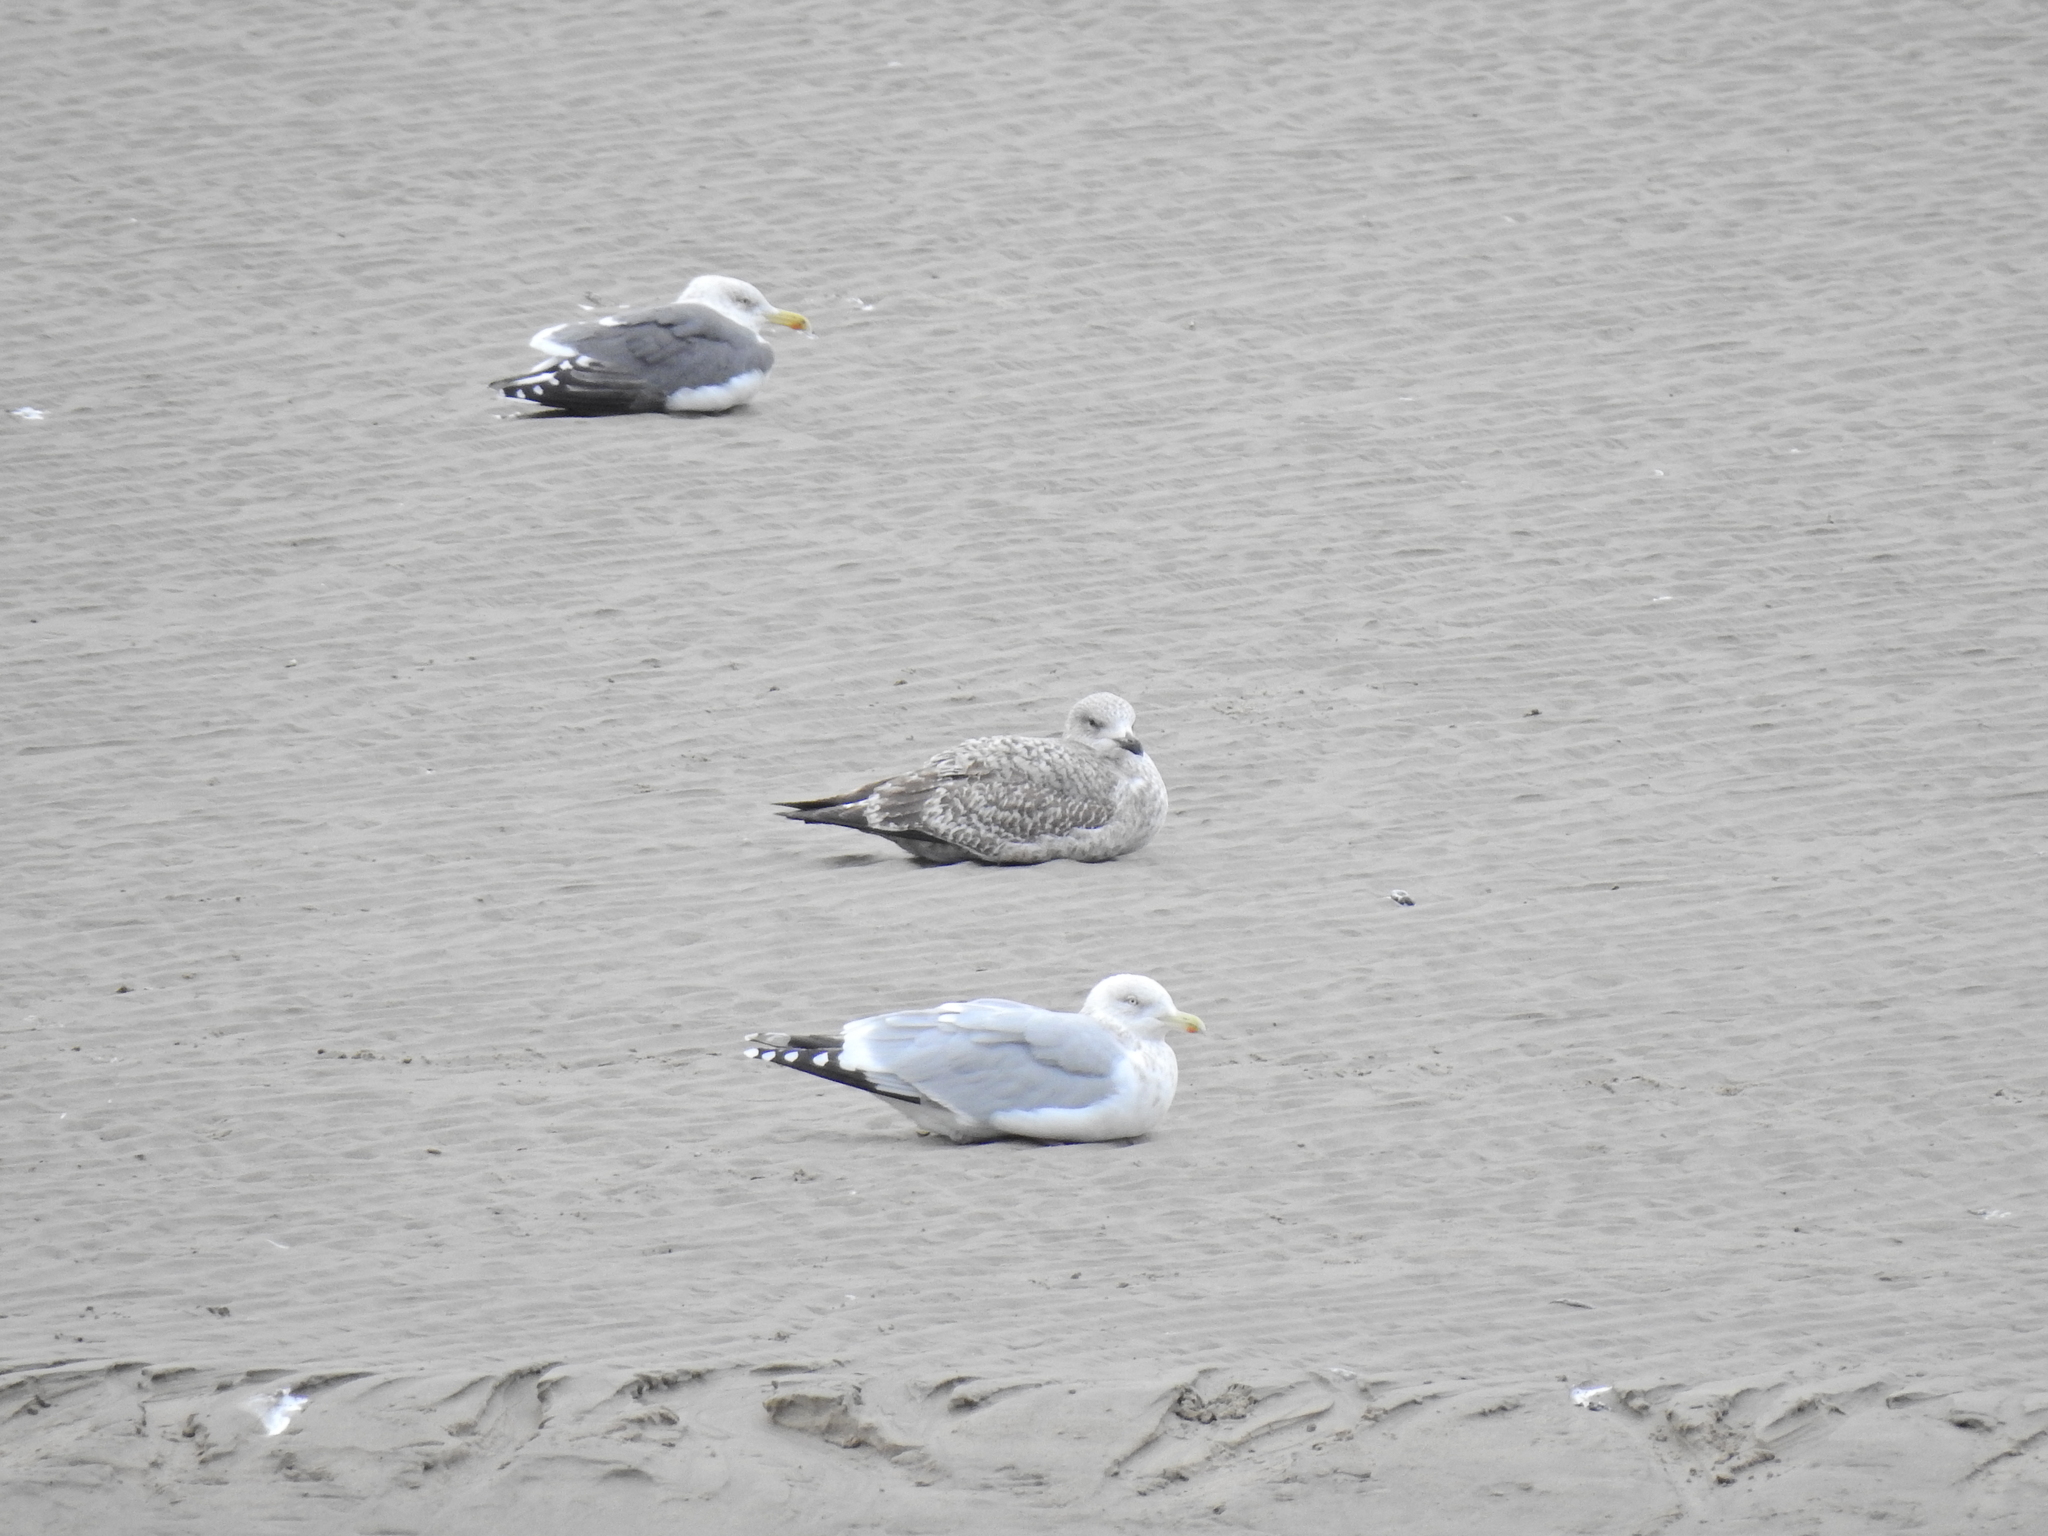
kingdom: Animalia
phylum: Chordata
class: Aves
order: Charadriiformes
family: Laridae
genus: Larus
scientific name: Larus argentatus
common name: Herring gull
